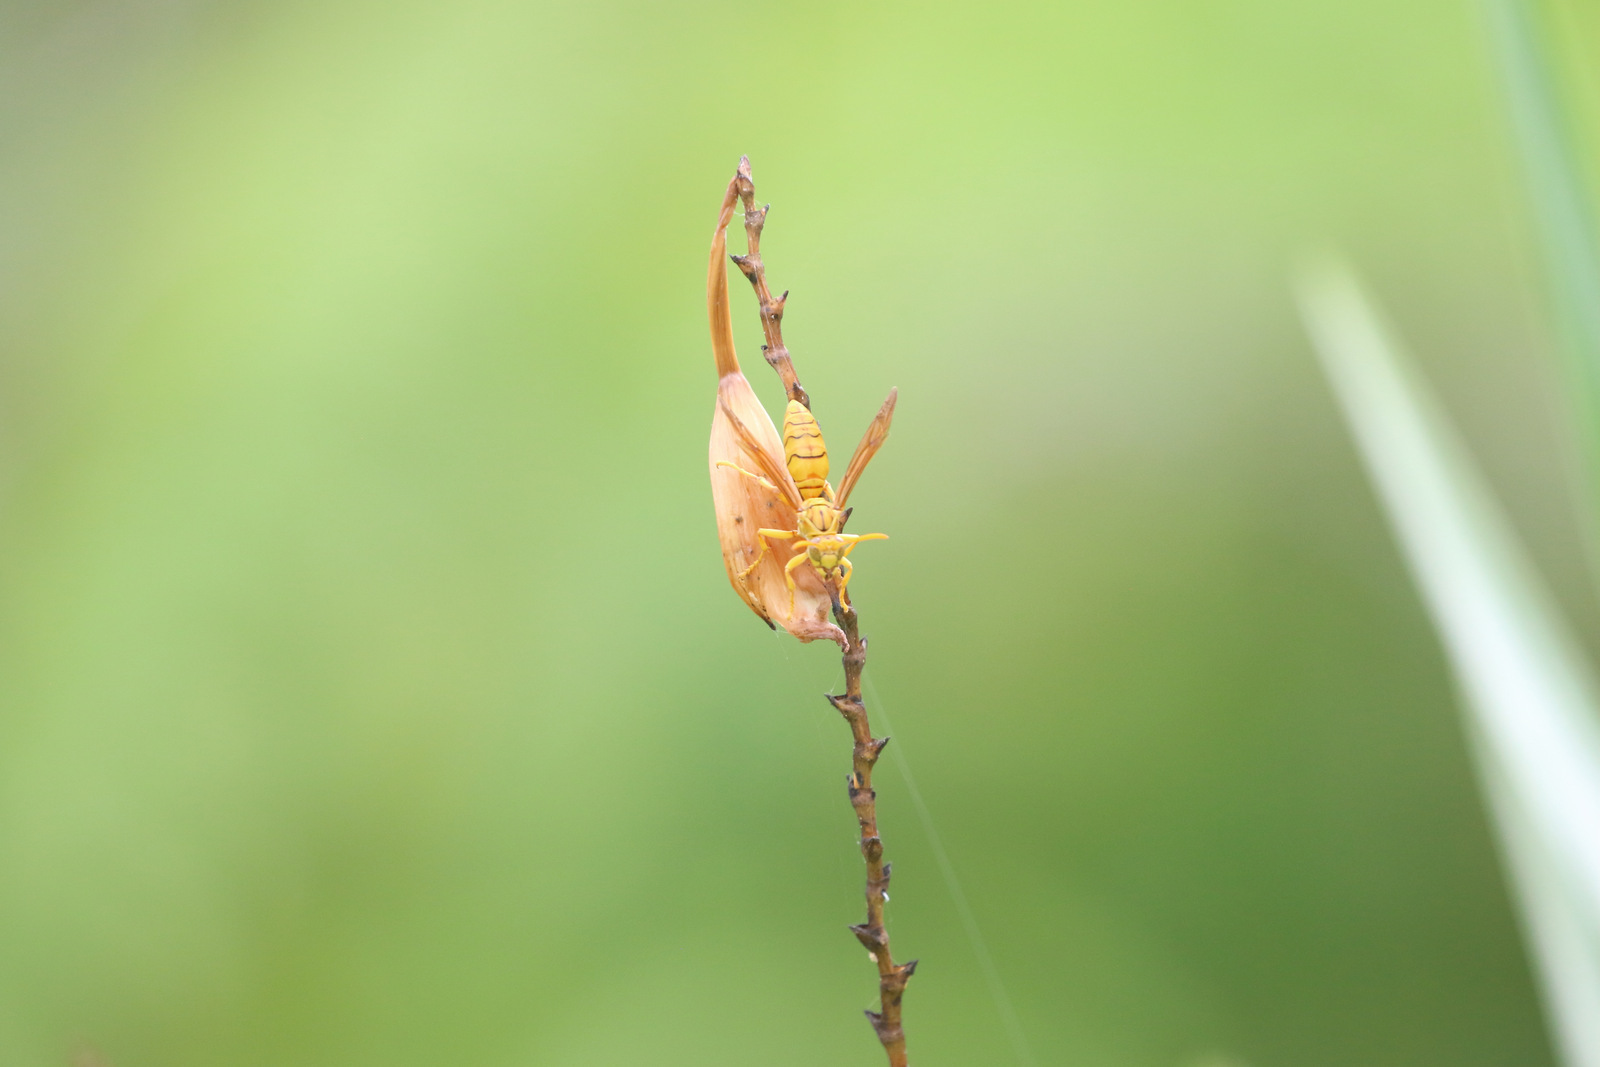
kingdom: Animalia
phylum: Arthropoda
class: Insecta
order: Hymenoptera
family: Eumenidae
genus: Polistes
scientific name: Polistes olivaceus
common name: Paper wasp
